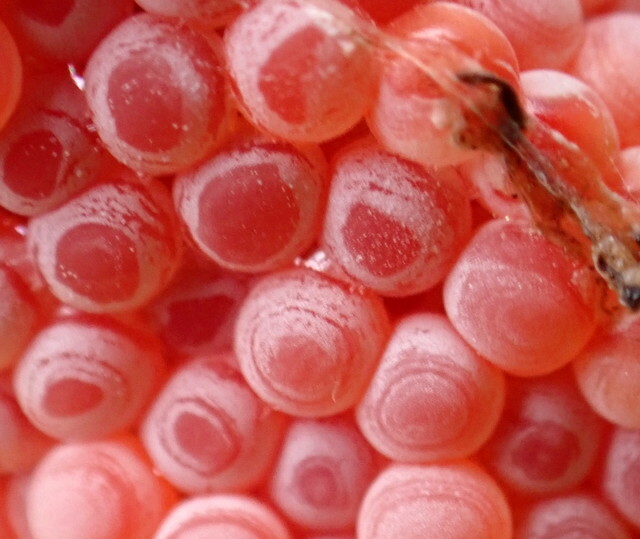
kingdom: Animalia
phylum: Mollusca
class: Gastropoda
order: Architaenioglossa
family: Ampullariidae
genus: Pomacea
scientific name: Pomacea maculata
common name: Giant applesnail
